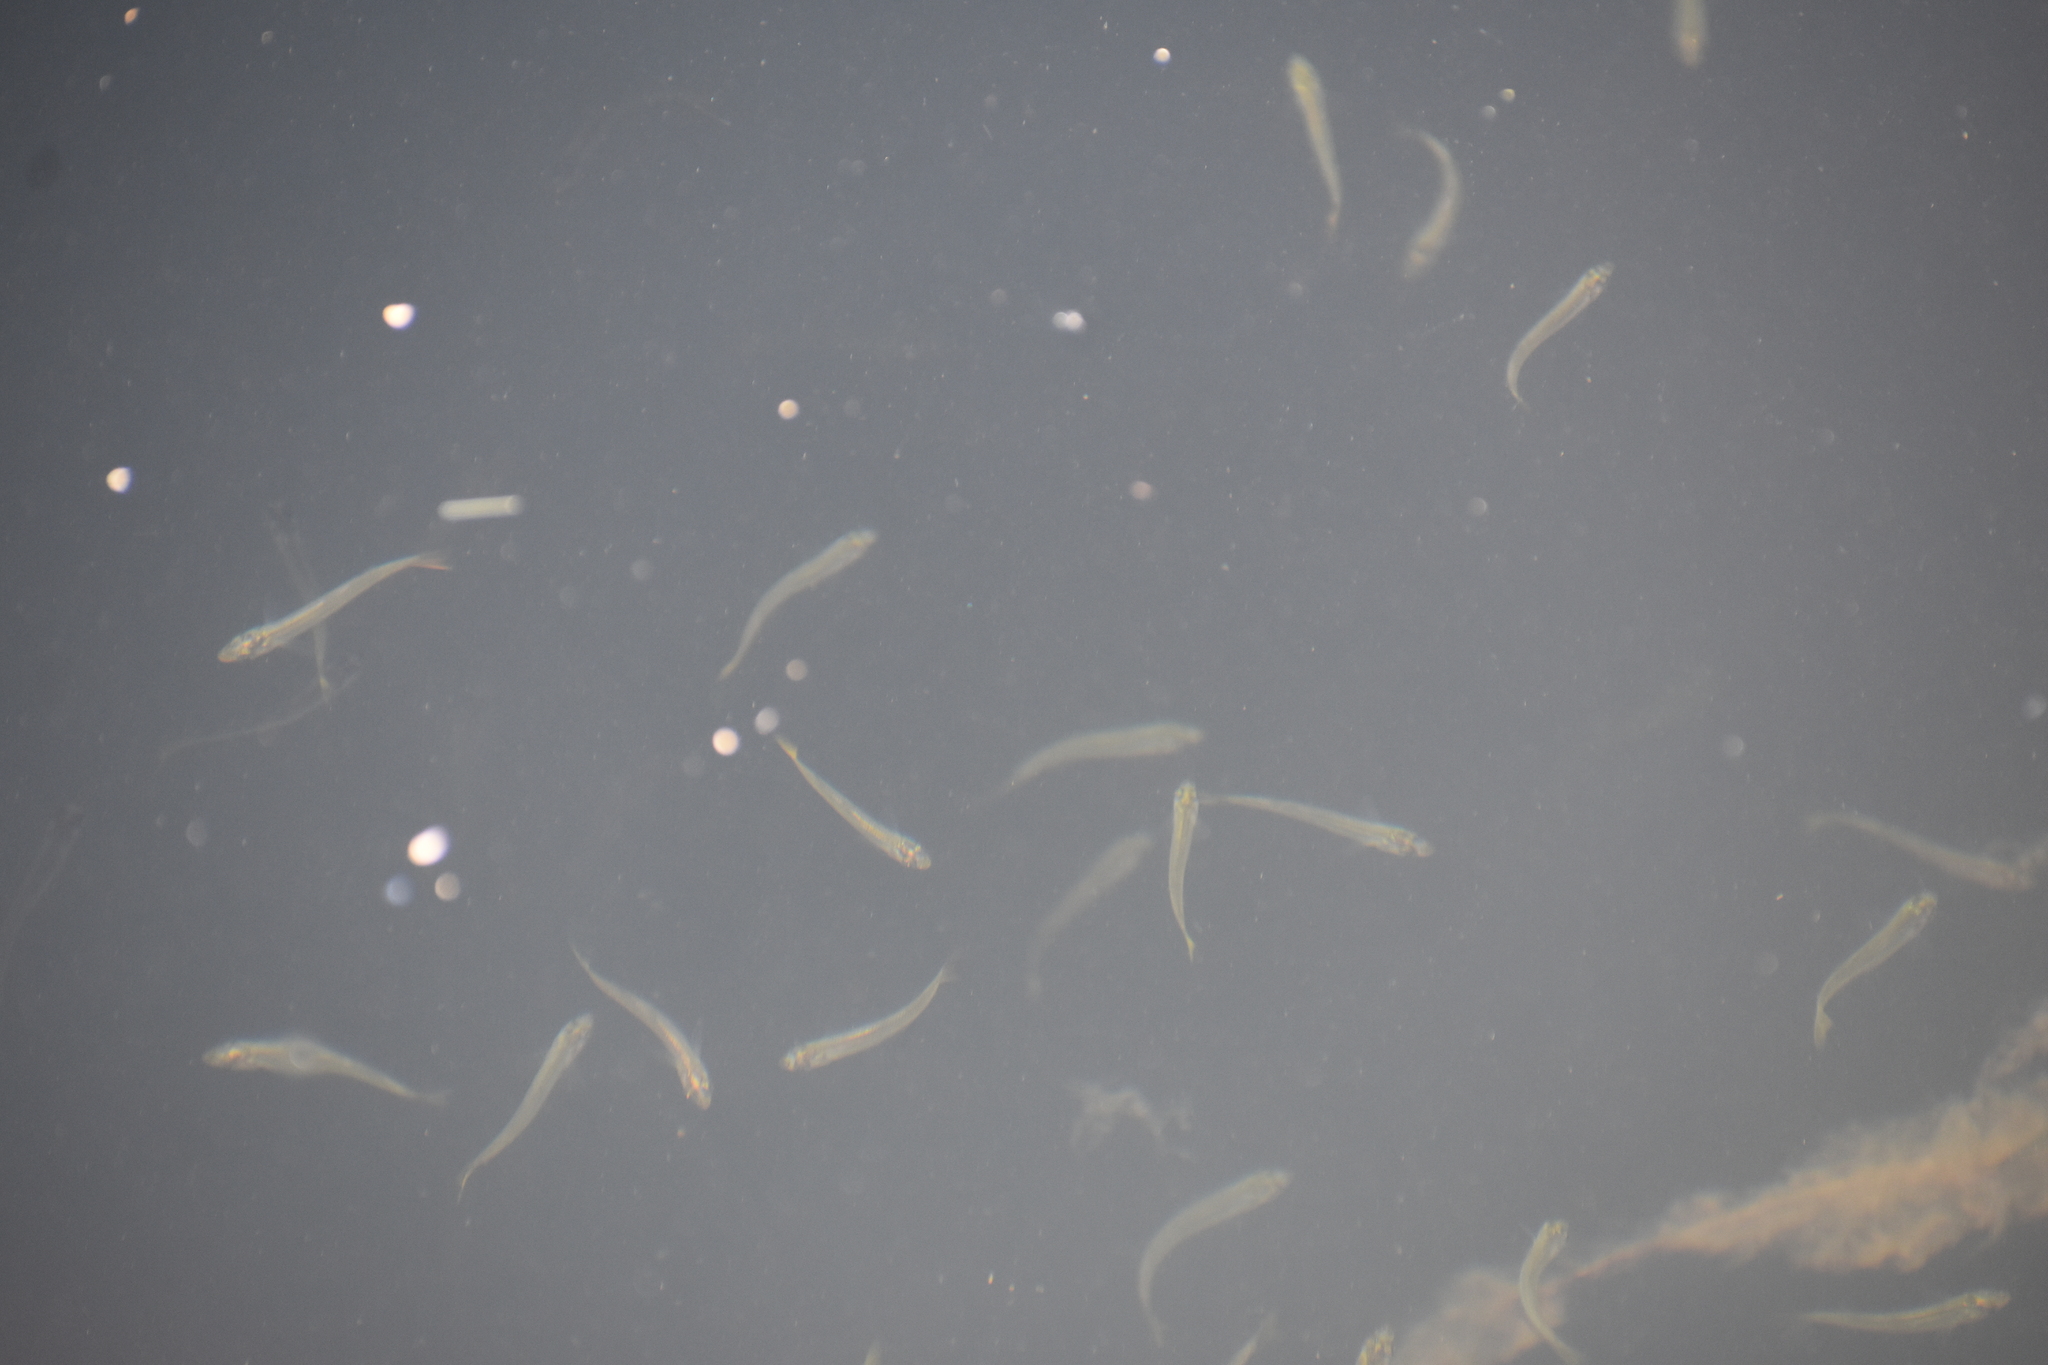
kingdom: Animalia
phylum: Chordata
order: Atheriniformes
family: Atherinopsidae
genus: Menidia
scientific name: Menidia menidia
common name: Atlantic silverside
